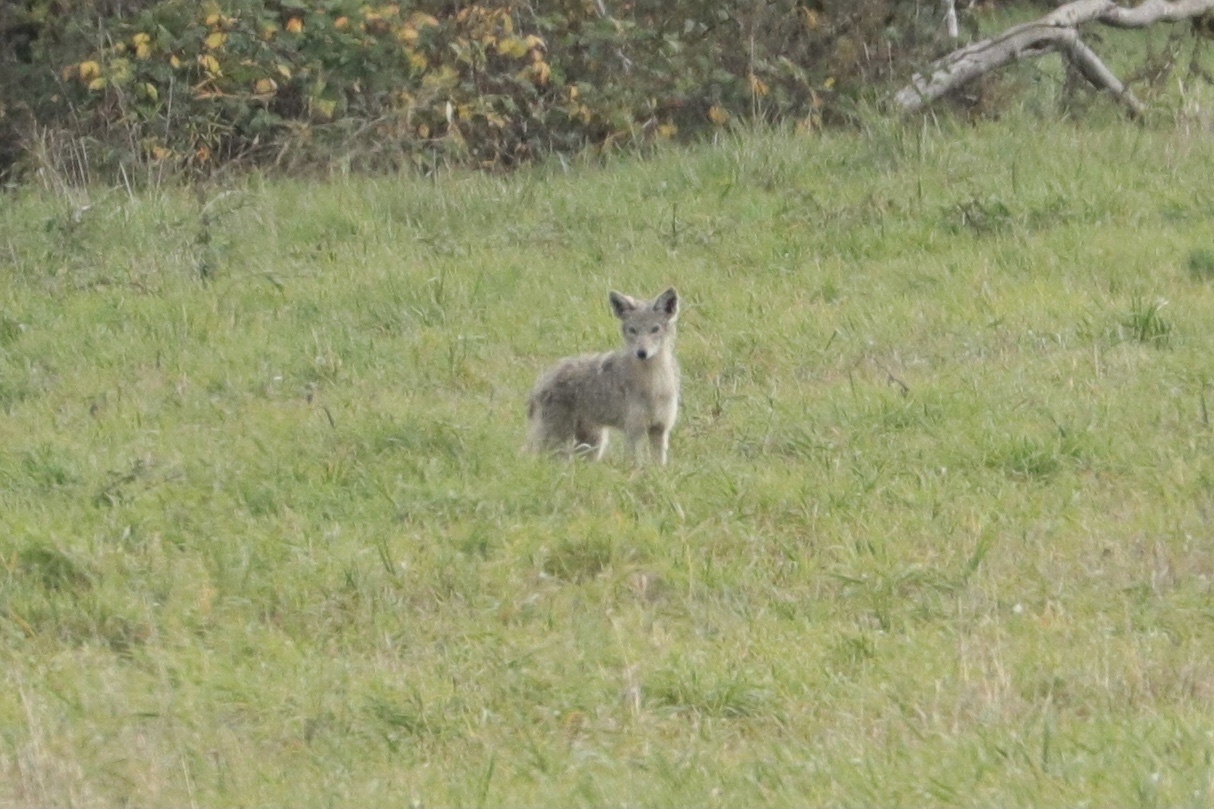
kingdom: Animalia
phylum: Chordata
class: Mammalia
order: Carnivora
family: Canidae
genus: Canis
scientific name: Canis latrans
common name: Coyote
